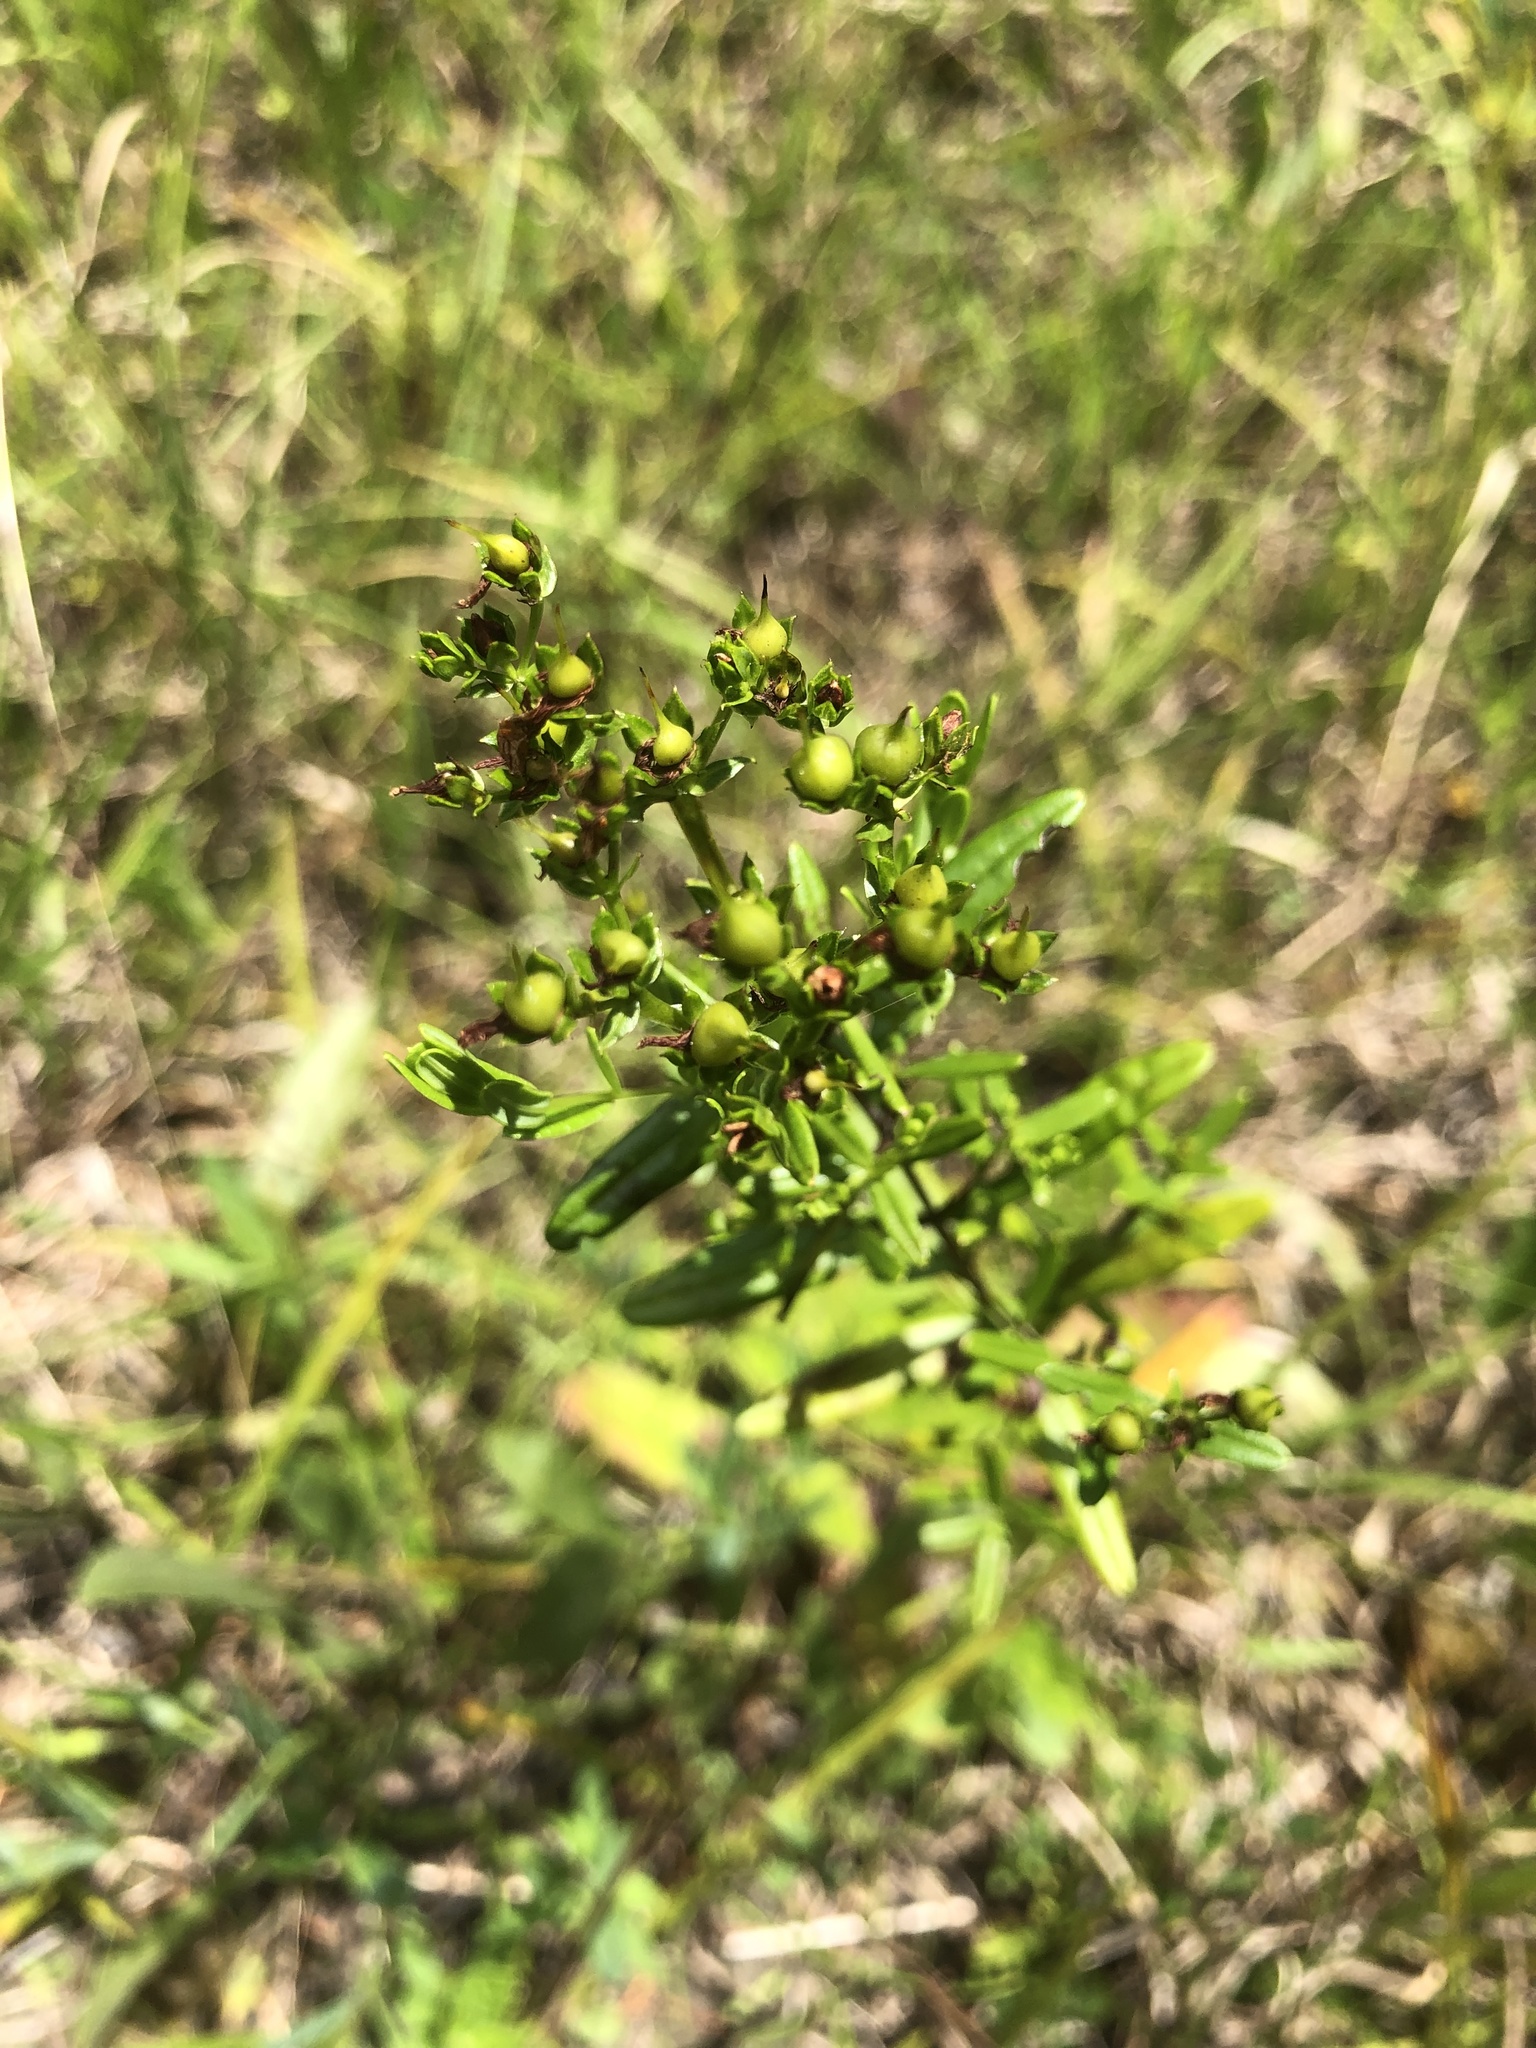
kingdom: Plantae
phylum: Tracheophyta
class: Magnoliopsida
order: Malpighiales
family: Hypericaceae
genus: Hypericum
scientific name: Hypericum sphaerocarpum
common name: Round-fruited st. john's-wort
